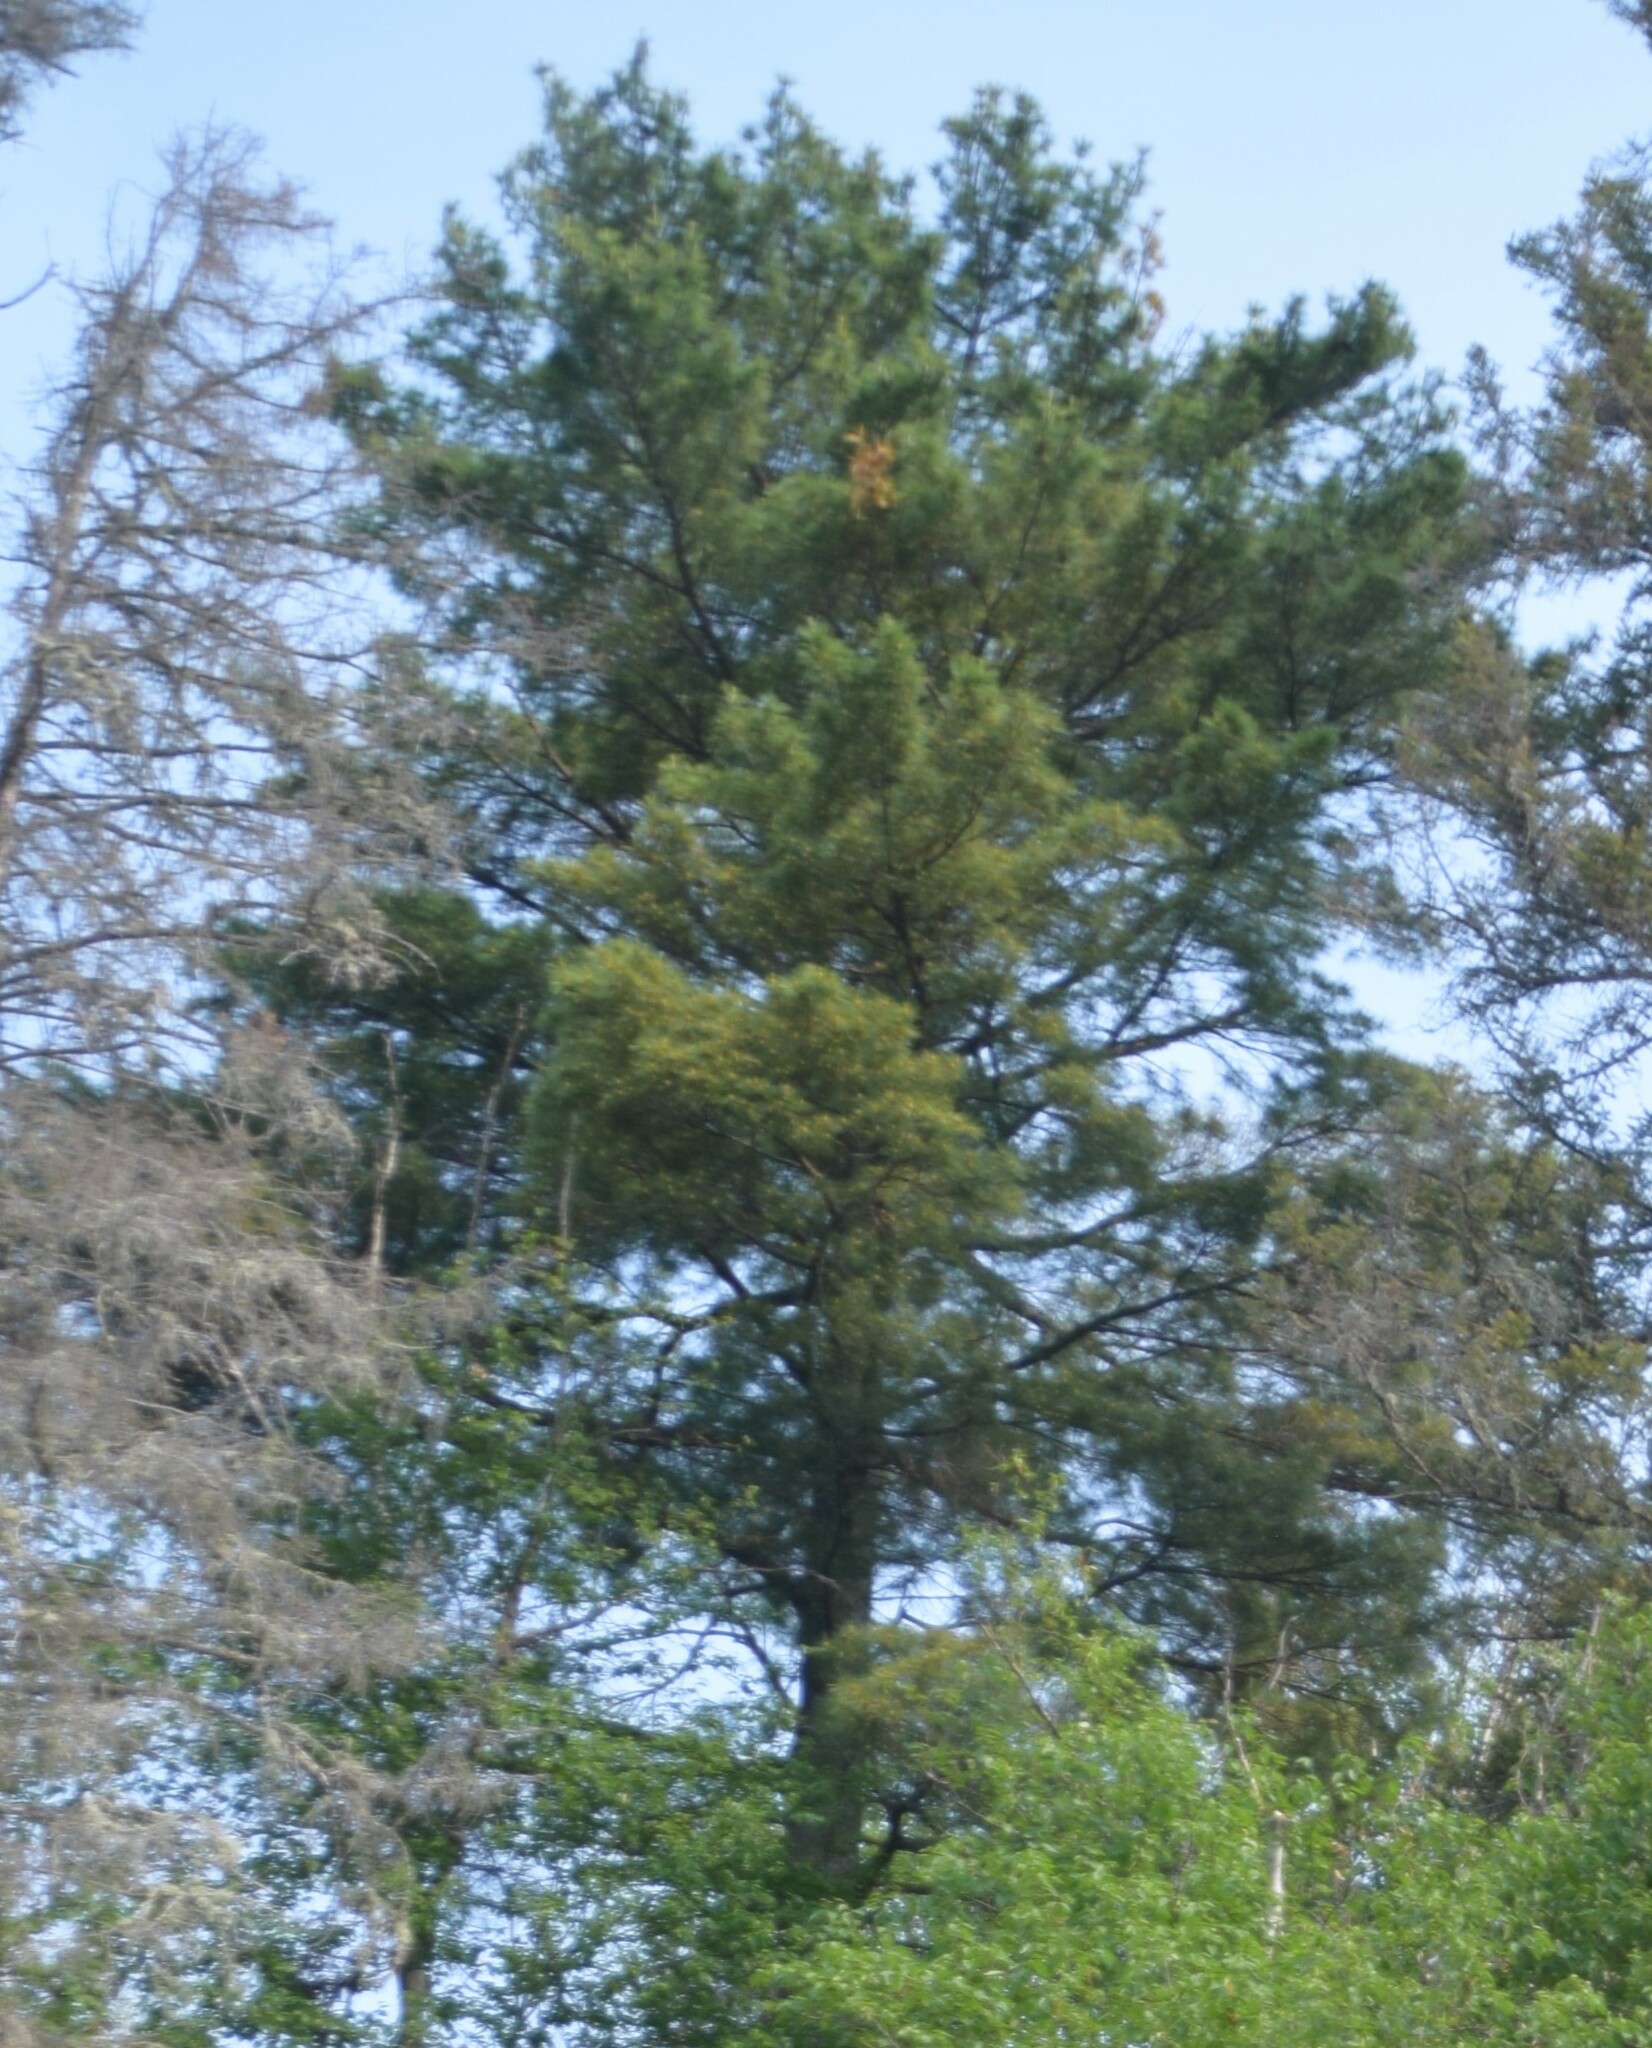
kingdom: Plantae
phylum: Tracheophyta
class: Pinopsida
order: Pinales
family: Pinaceae
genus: Pinus
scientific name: Pinus strobus
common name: Weymouth pine
